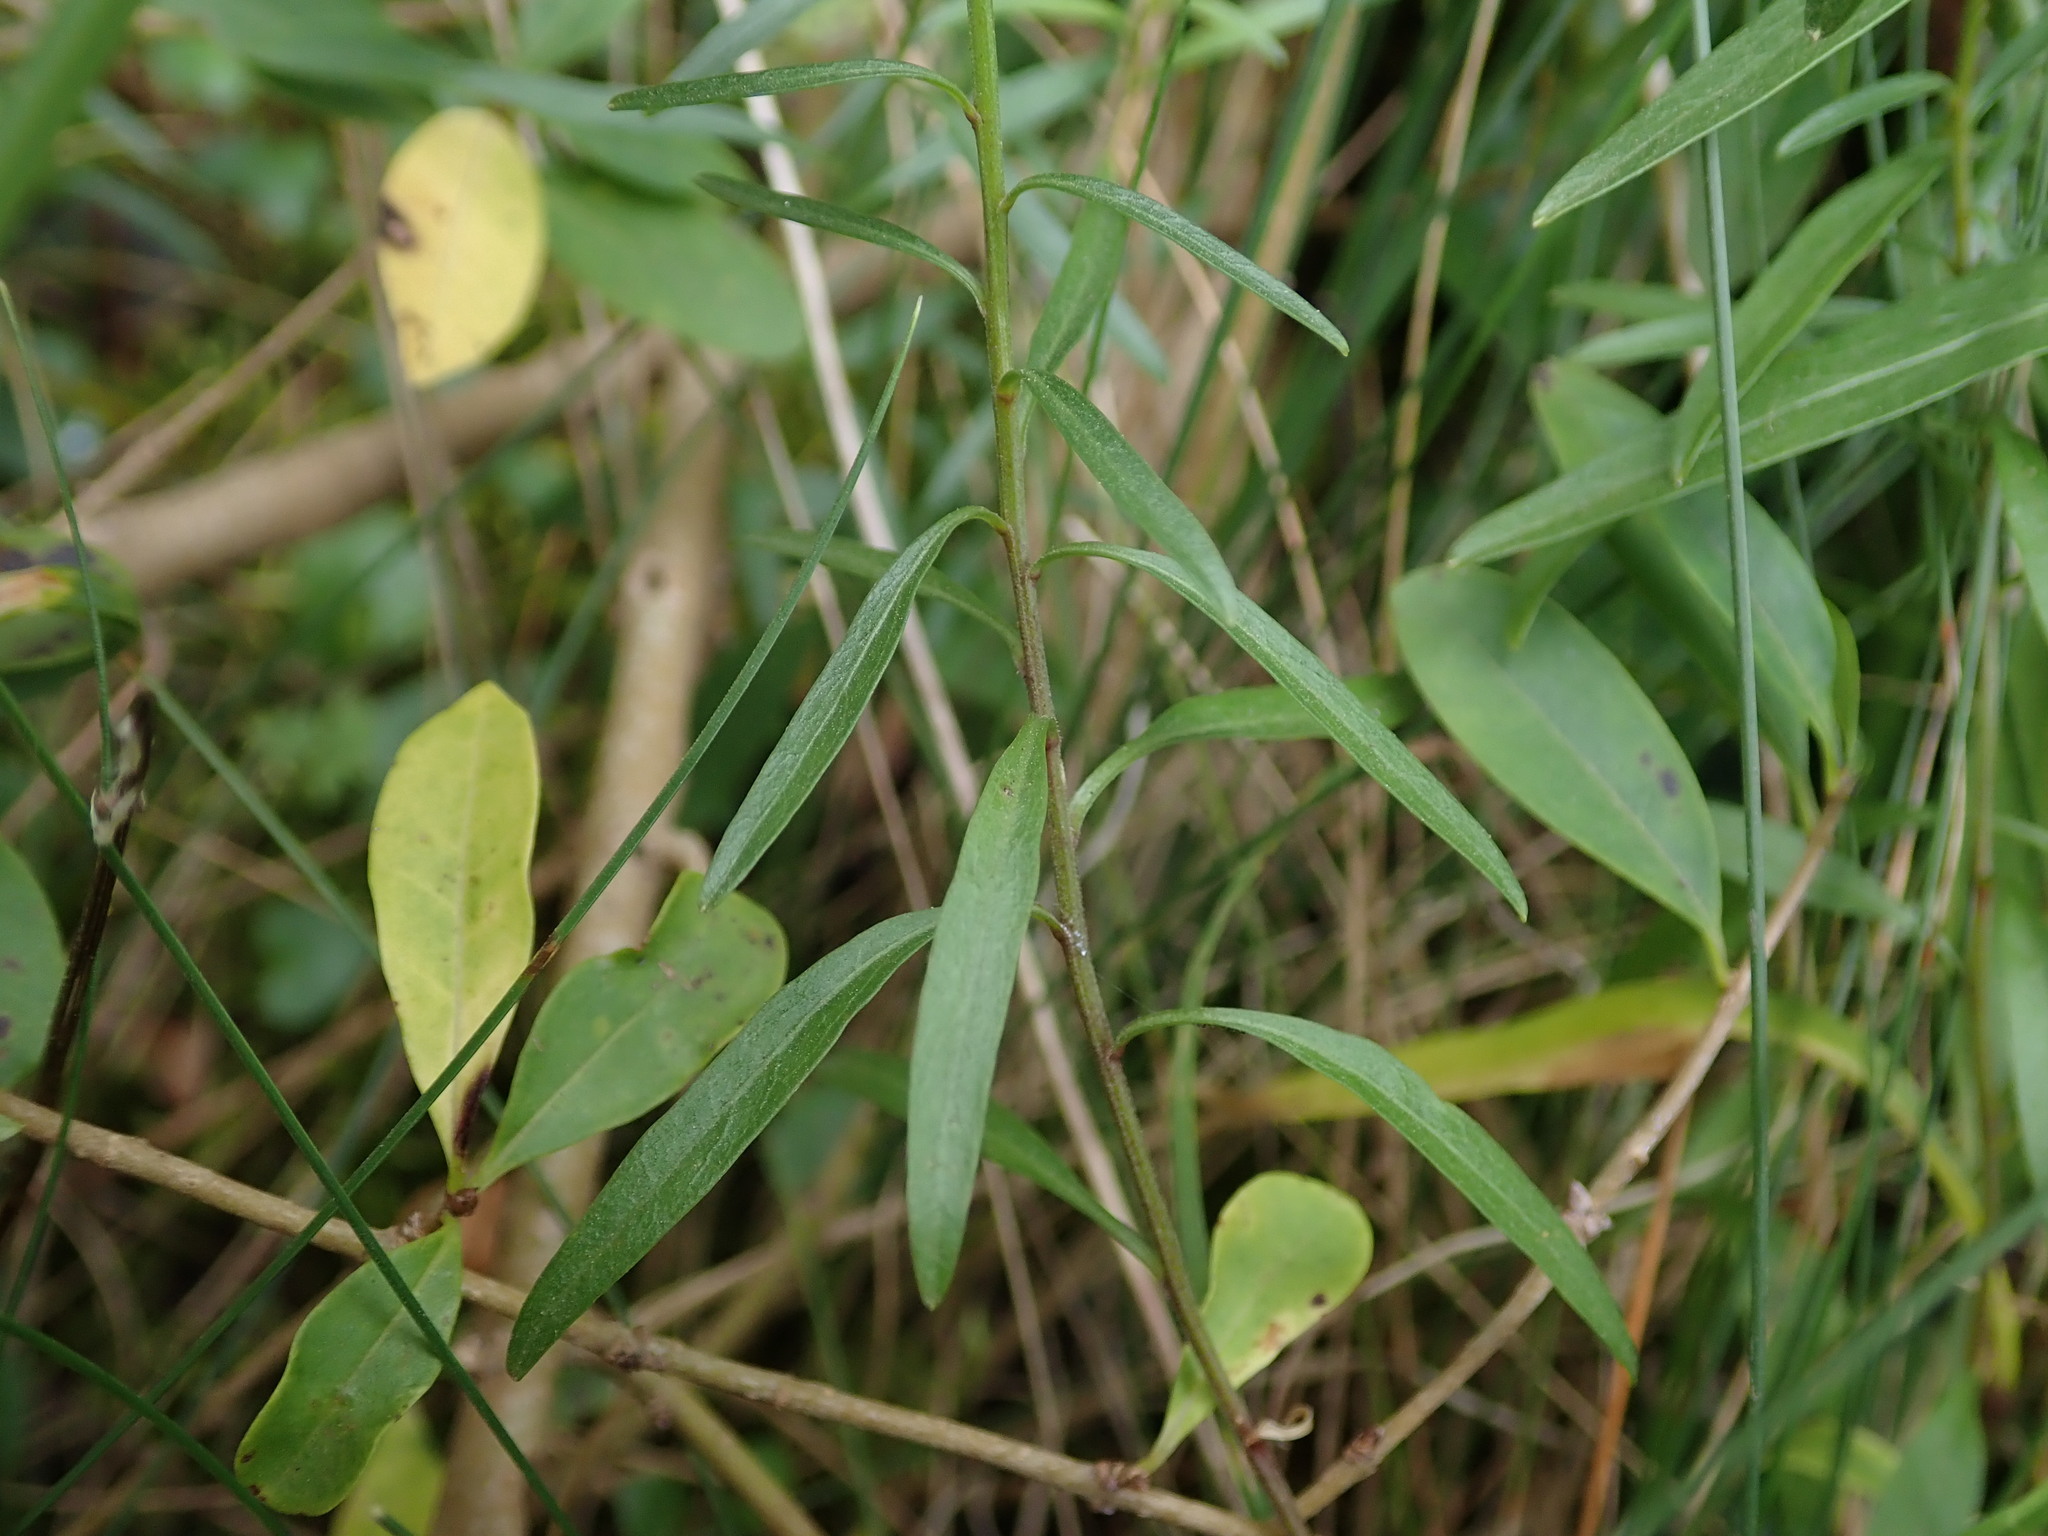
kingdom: Plantae
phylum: Tracheophyta
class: Magnoliopsida
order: Asterales
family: Campanulaceae
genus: Campanula
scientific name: Campanula rotundifolia
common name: Harebell
